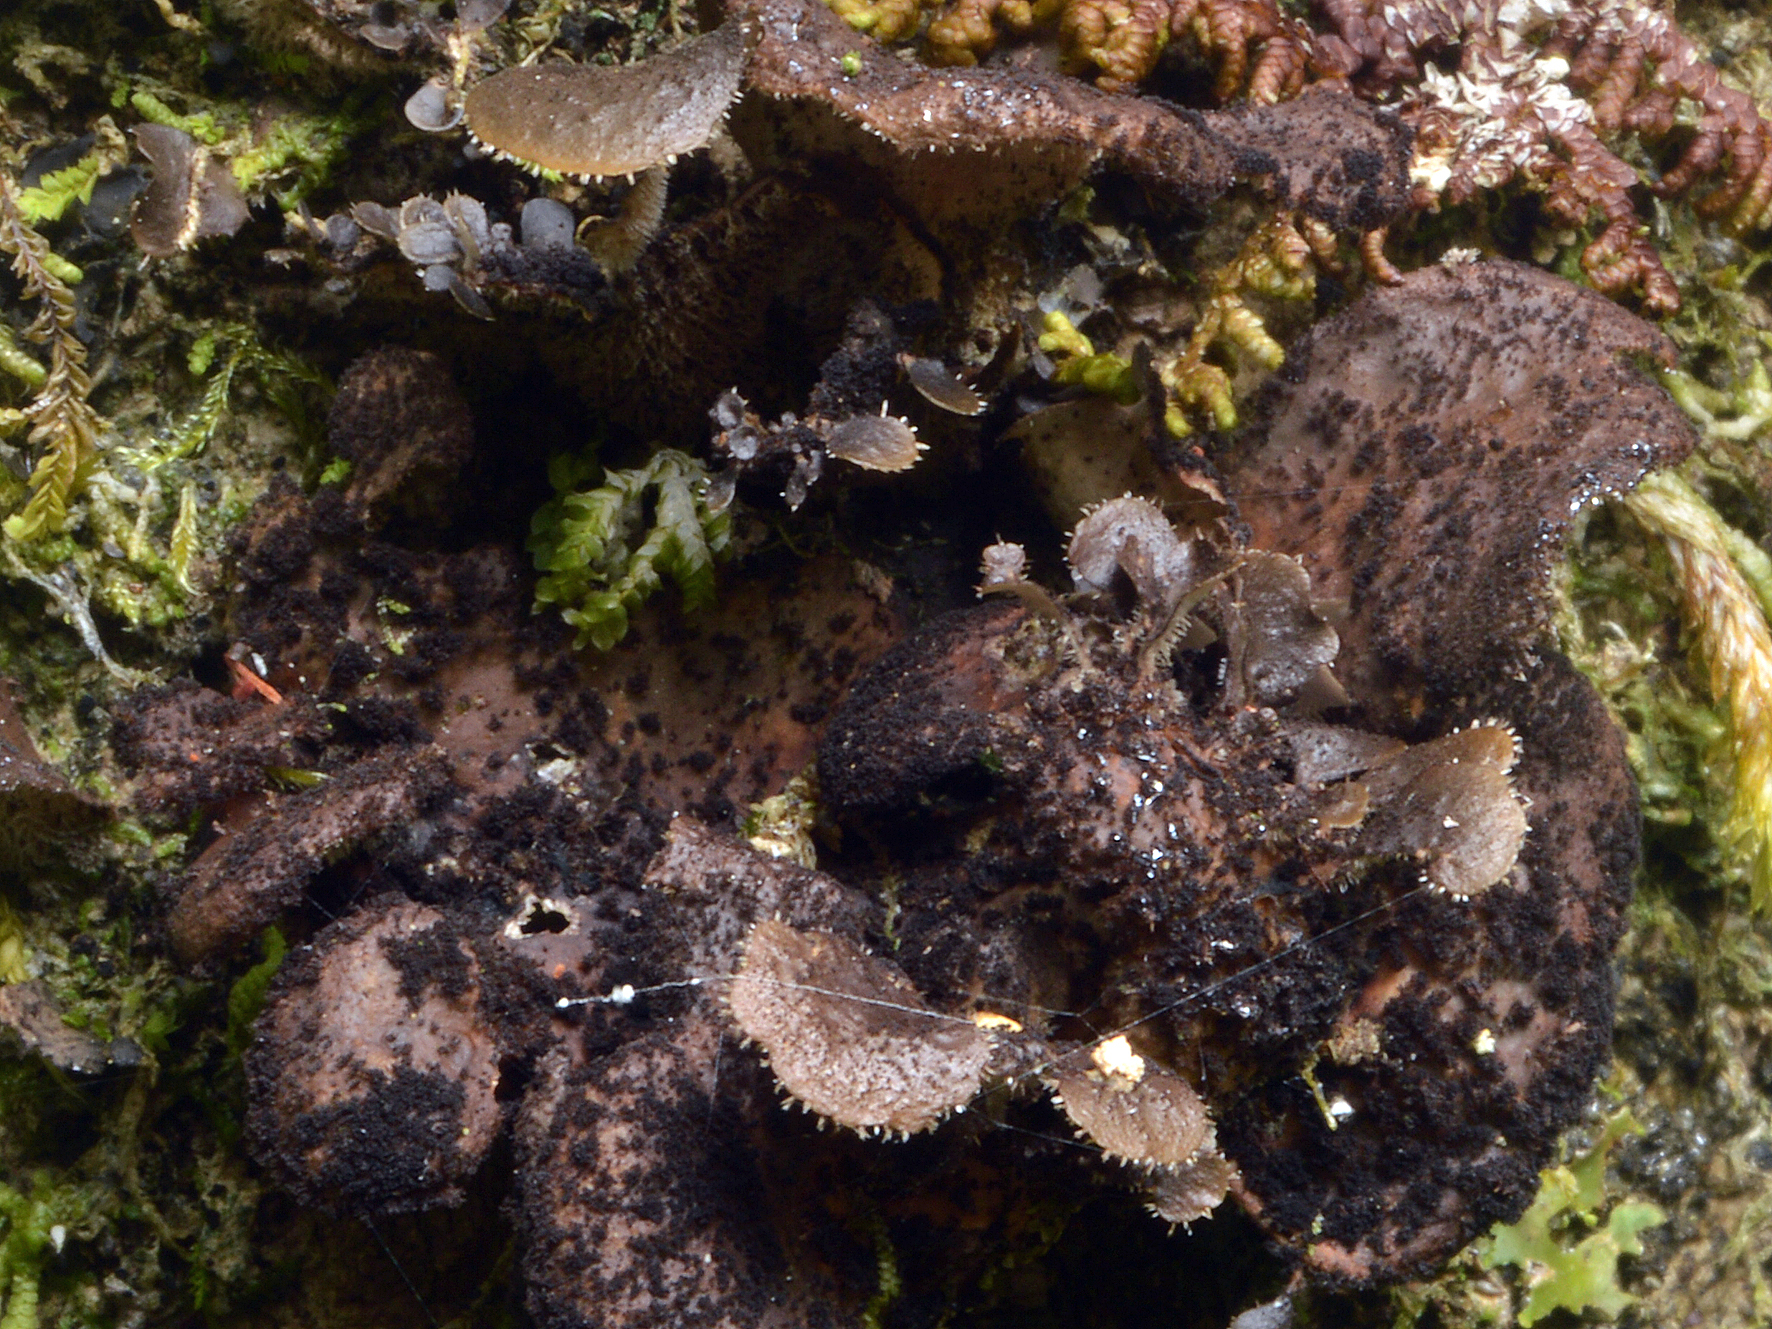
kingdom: Fungi
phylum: Ascomycota
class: Lecanoromycetes
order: Peltigerales
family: Lobariaceae
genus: Sticta
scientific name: Sticta fuliginosa
